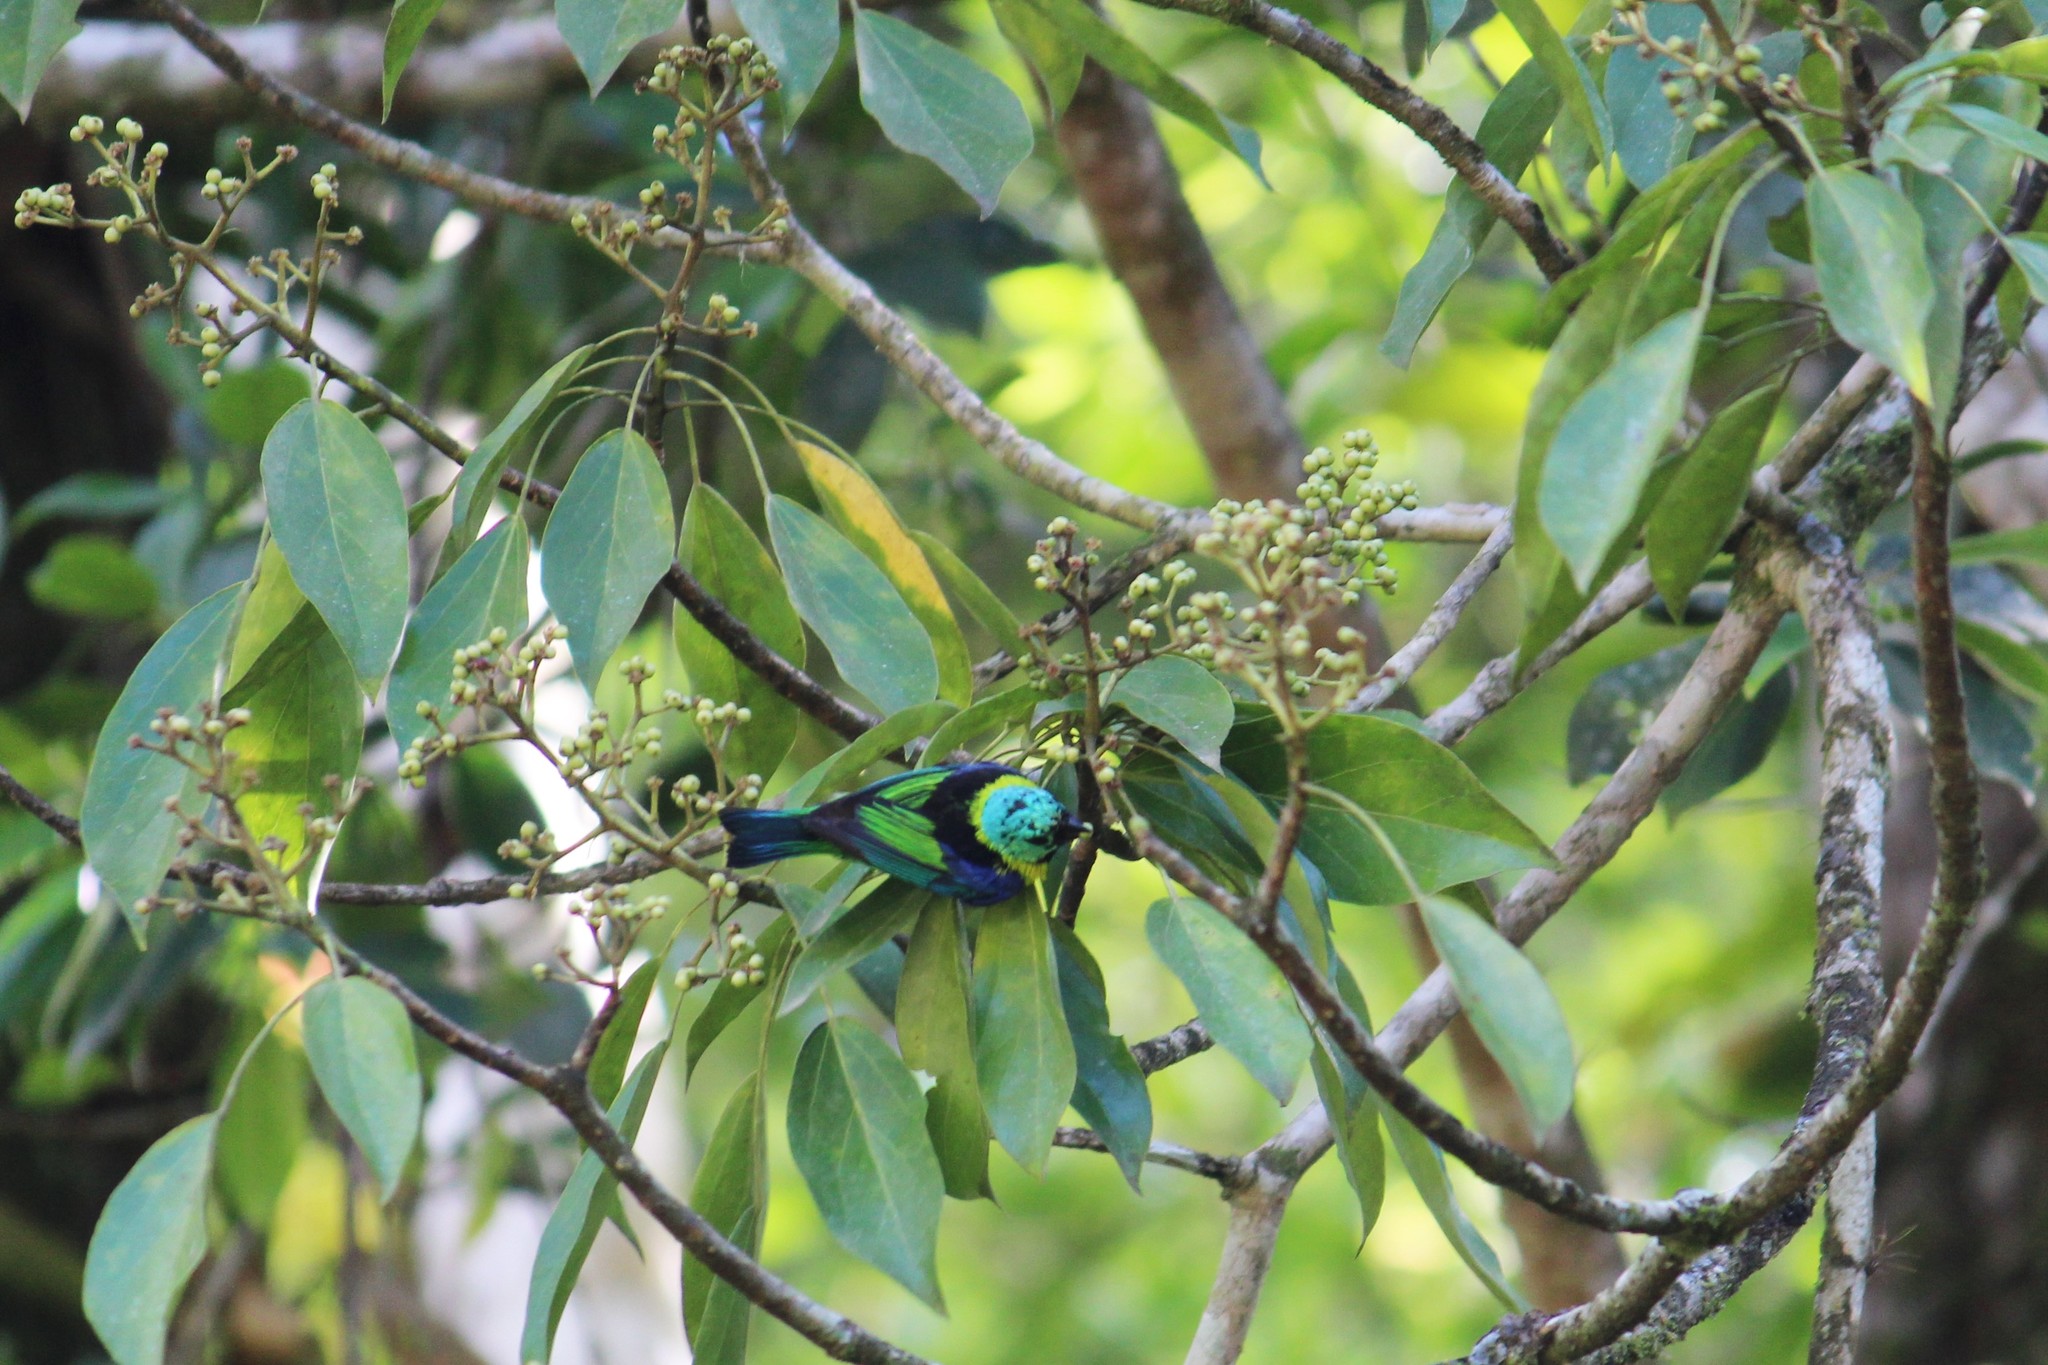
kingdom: Animalia
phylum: Chordata
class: Aves
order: Passeriformes
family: Thraupidae
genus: Tangara
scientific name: Tangara seledon
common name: Green-headed tanager
